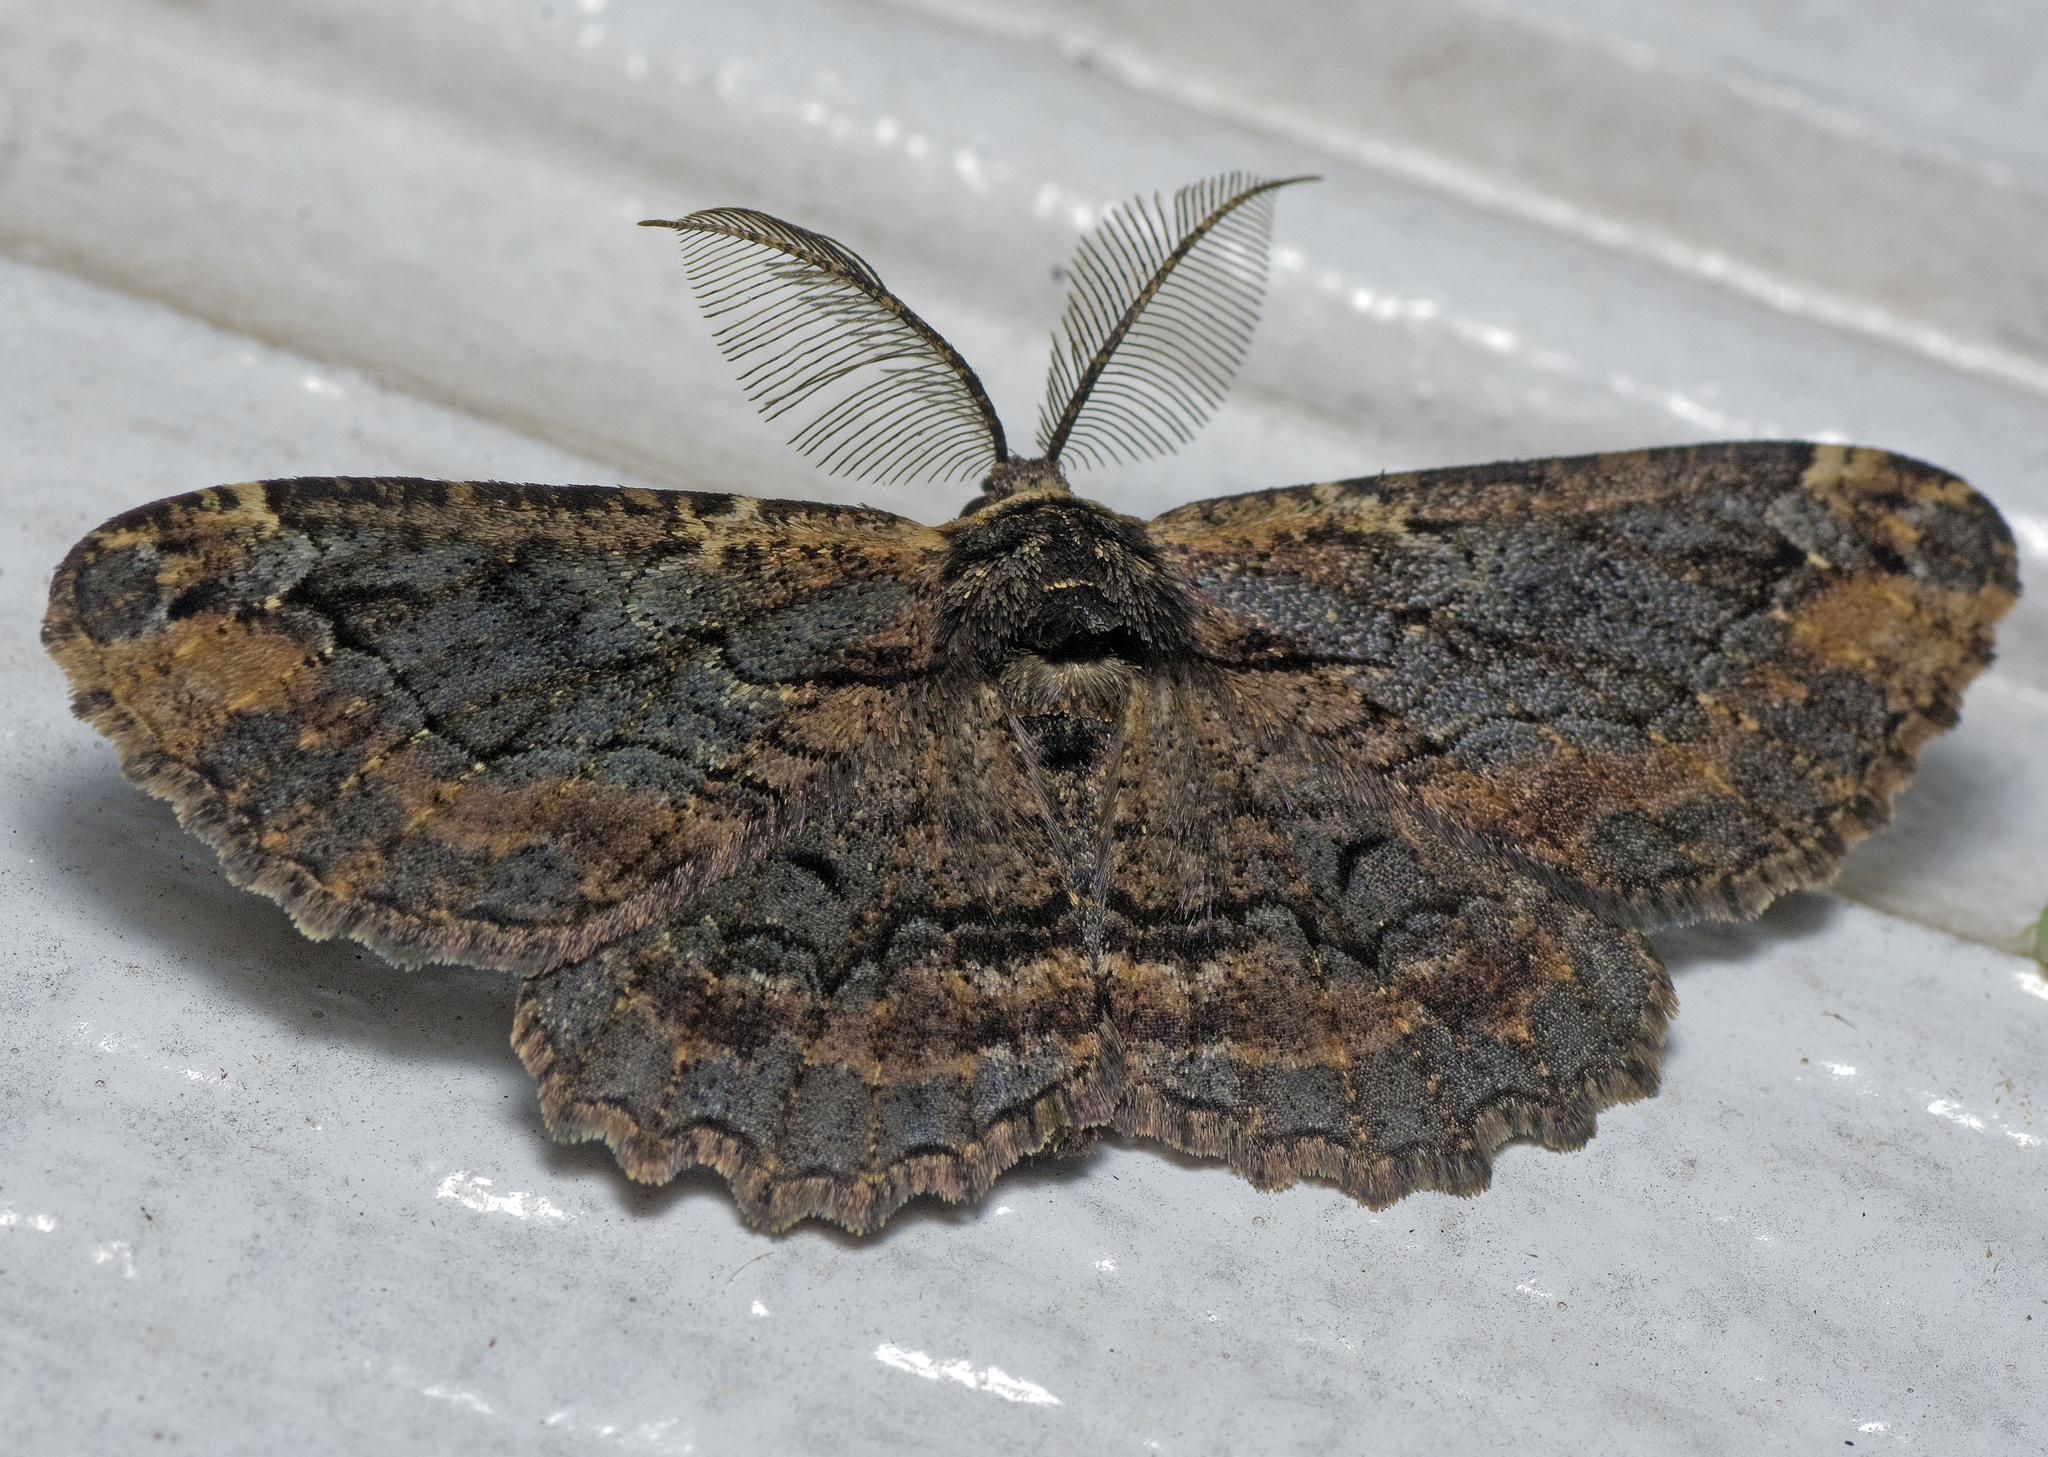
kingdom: Animalia
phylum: Arthropoda
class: Insecta
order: Lepidoptera
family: Geometridae
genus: Pholodes
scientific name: Pholodes sinistraria
